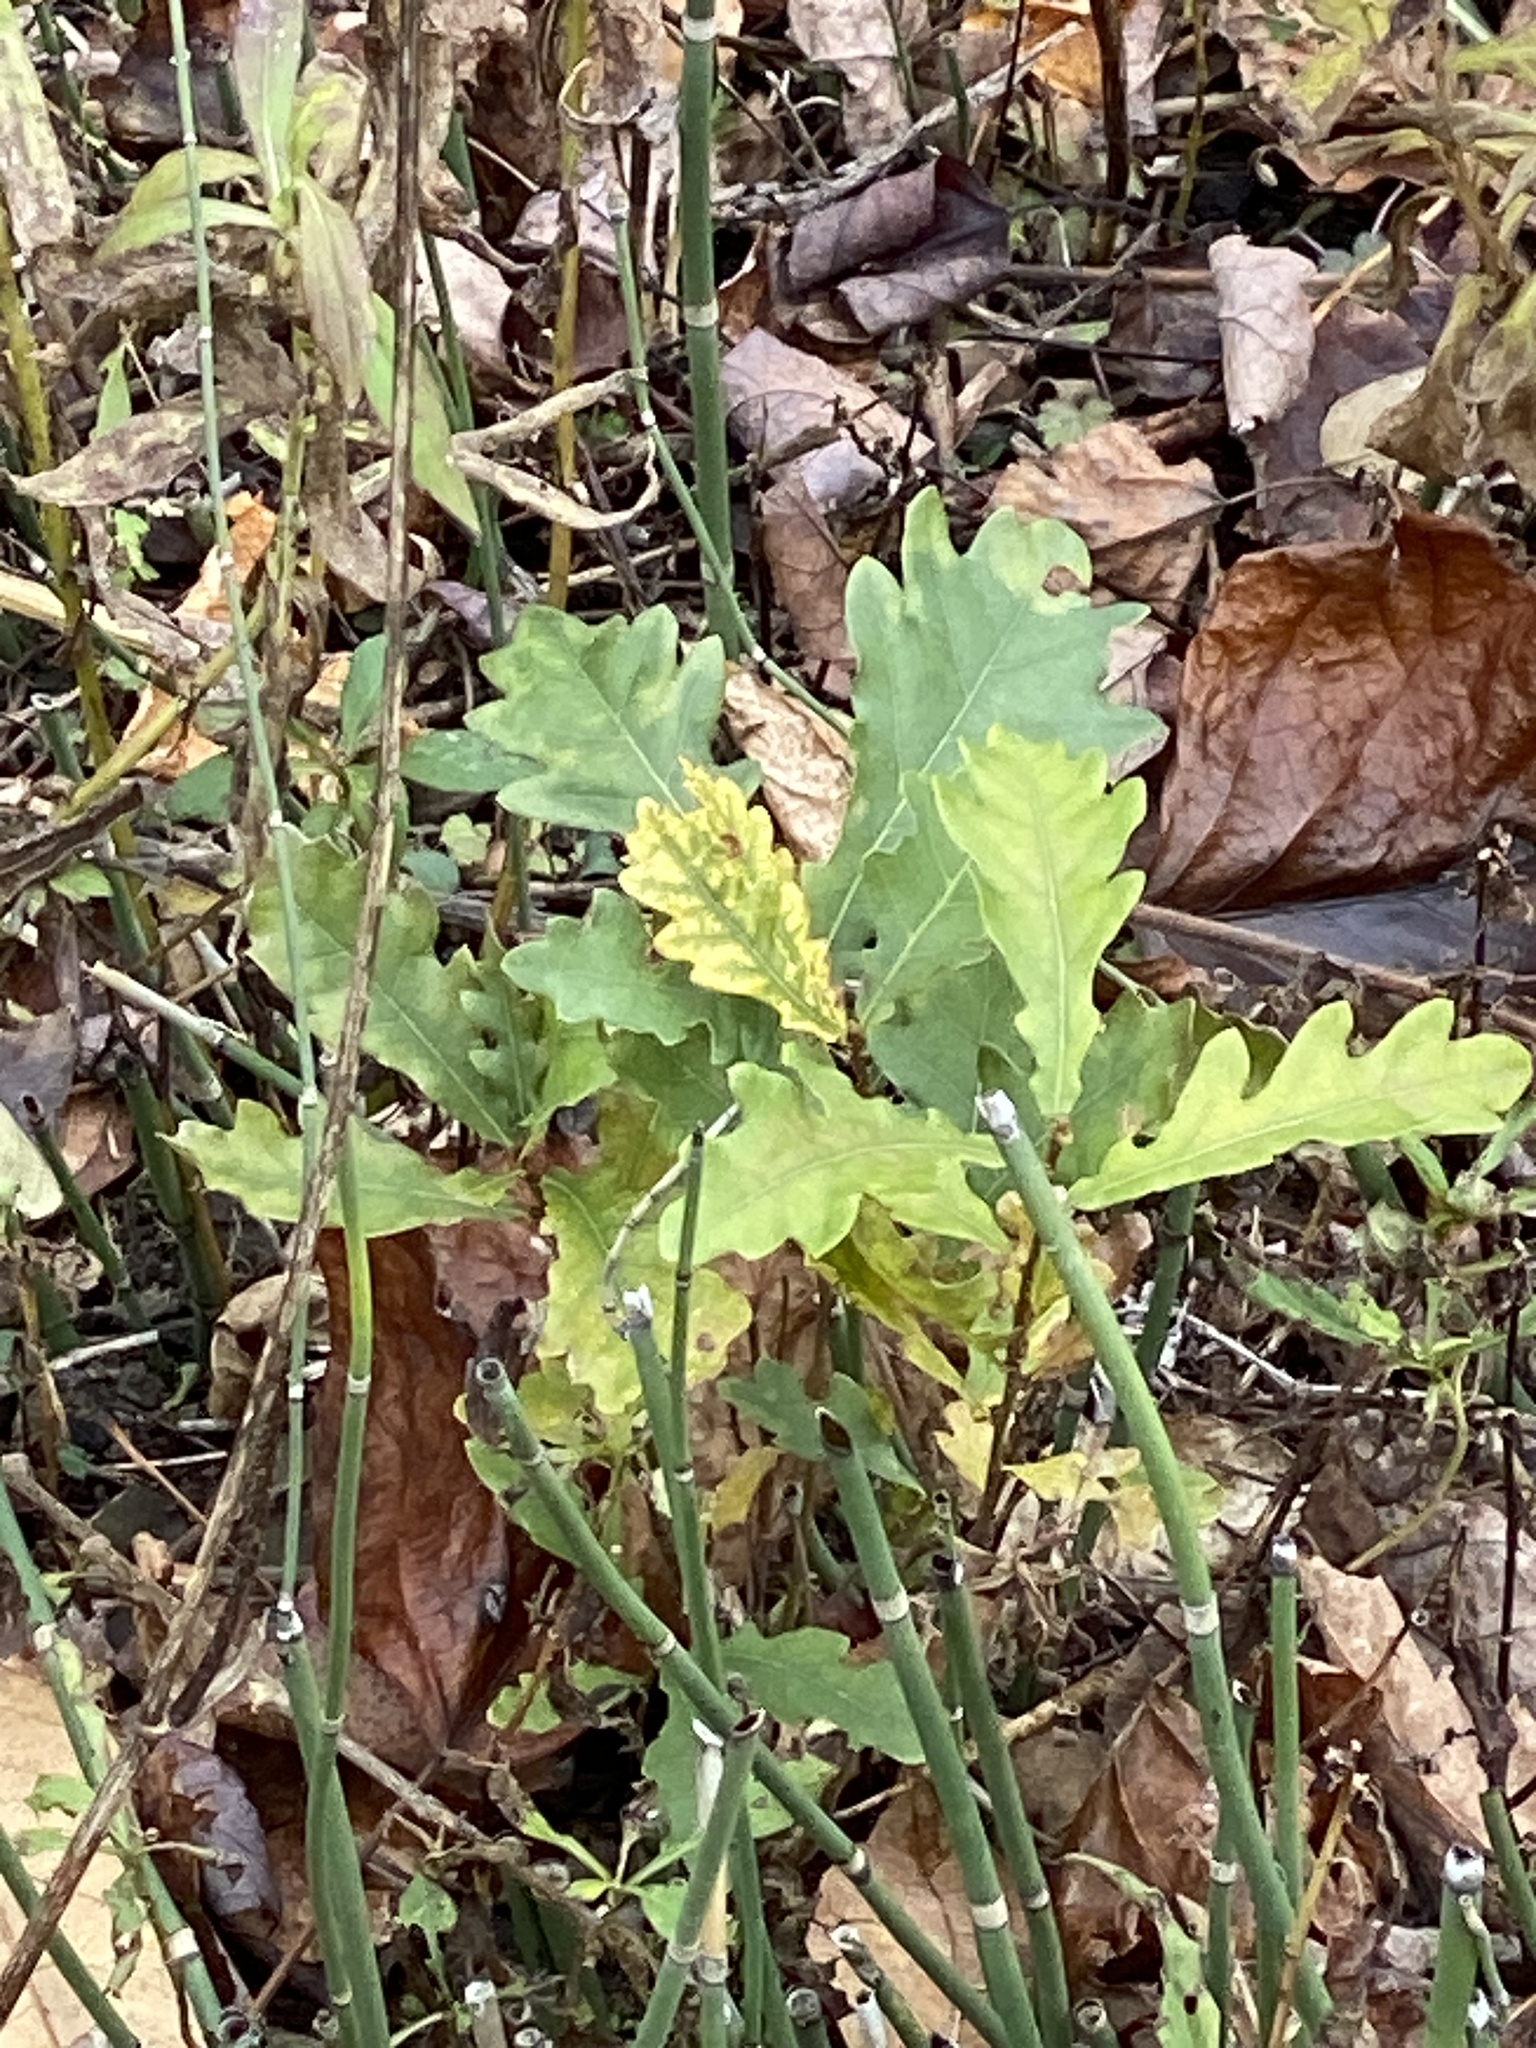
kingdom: Plantae
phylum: Tracheophyta
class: Magnoliopsida
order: Fagales
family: Fagaceae
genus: Quercus
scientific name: Quercus alba
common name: White oak
